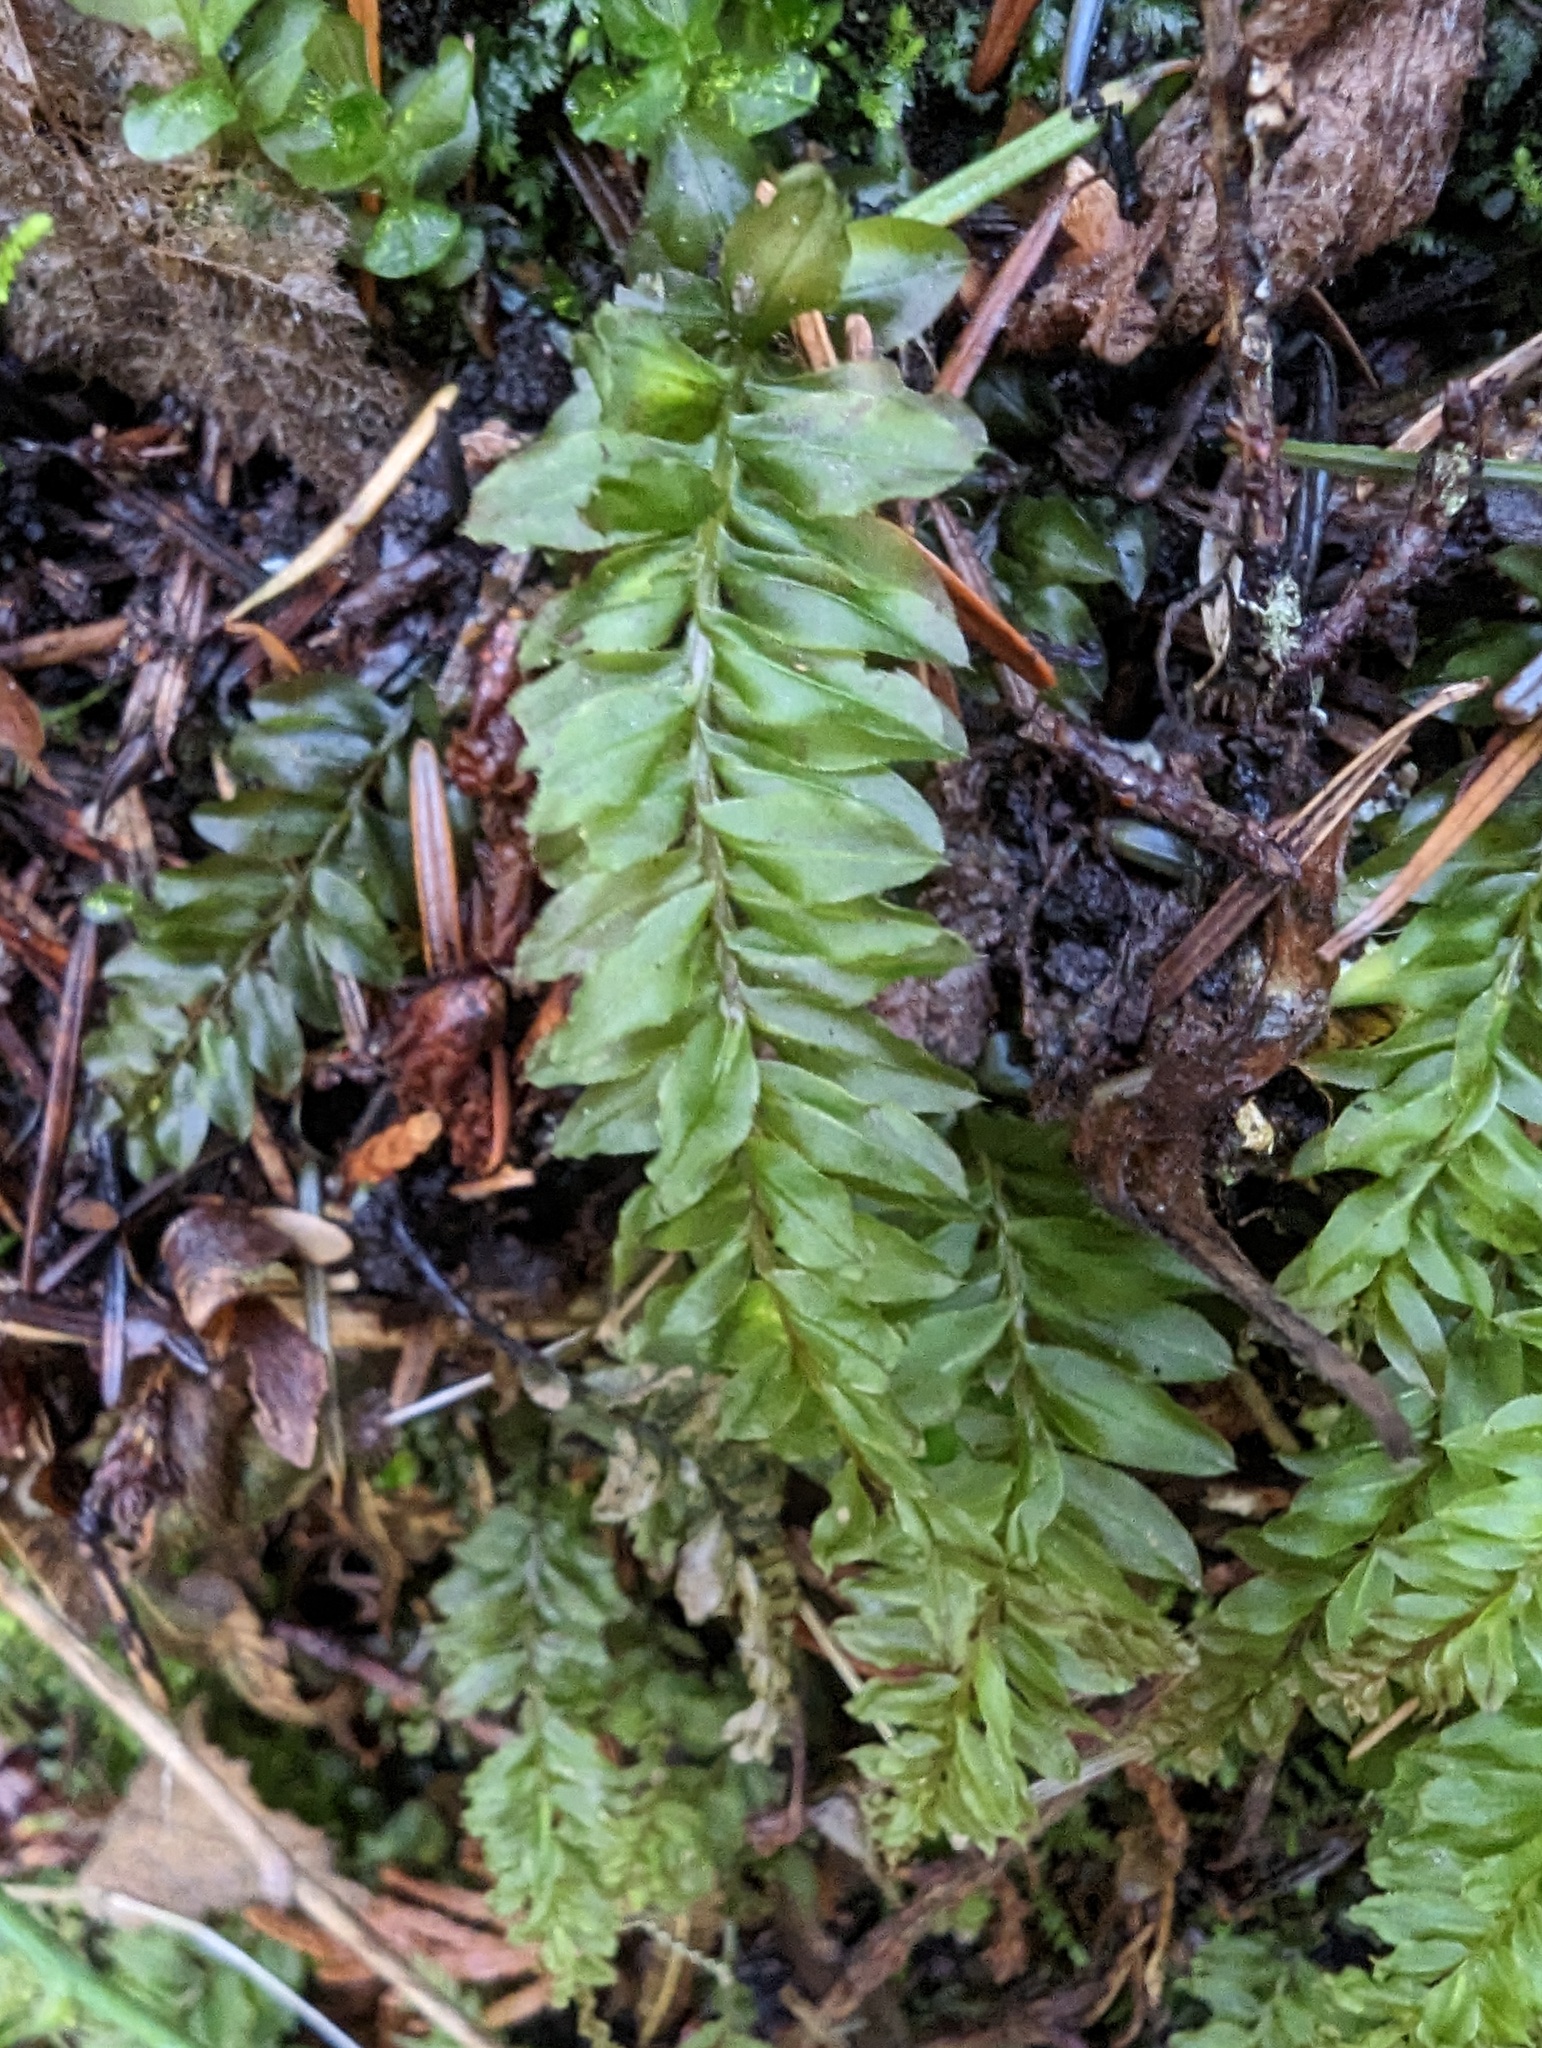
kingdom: Plantae
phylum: Bryophyta
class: Bryopsida
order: Bryales
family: Mniaceae
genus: Plagiomnium
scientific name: Plagiomnium insigne
